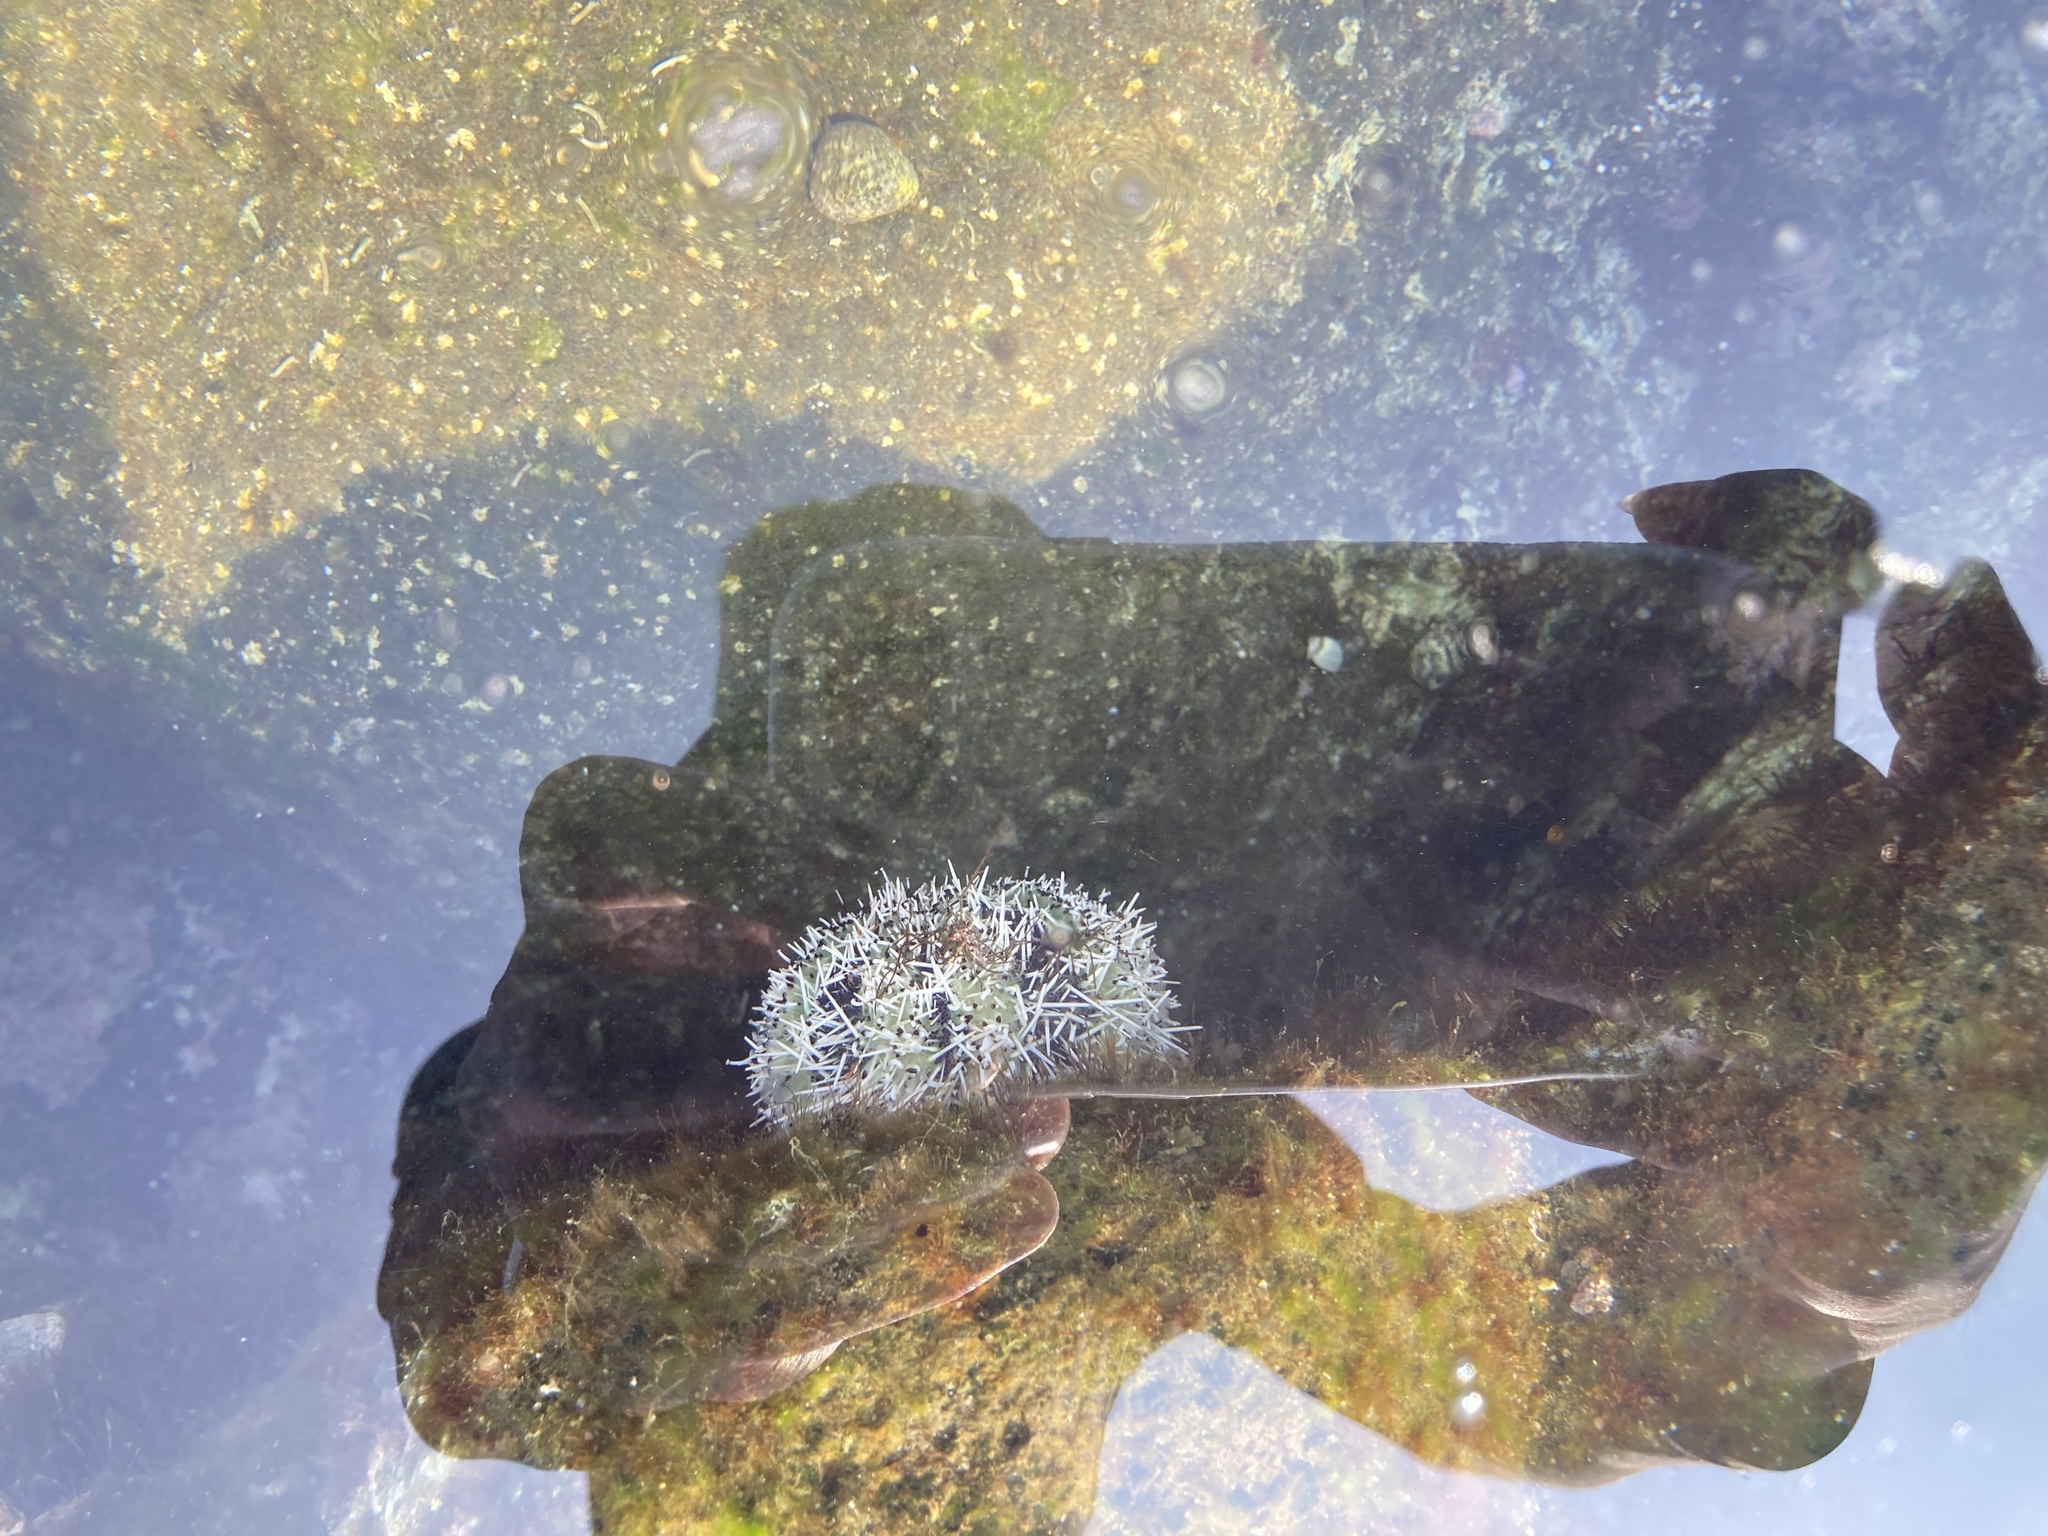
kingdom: Animalia
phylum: Echinodermata
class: Echinoidea
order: Camarodonta
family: Toxopneustidae
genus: Tripneustes
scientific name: Tripneustes gratilla
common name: Bischofsmützenseeigel
